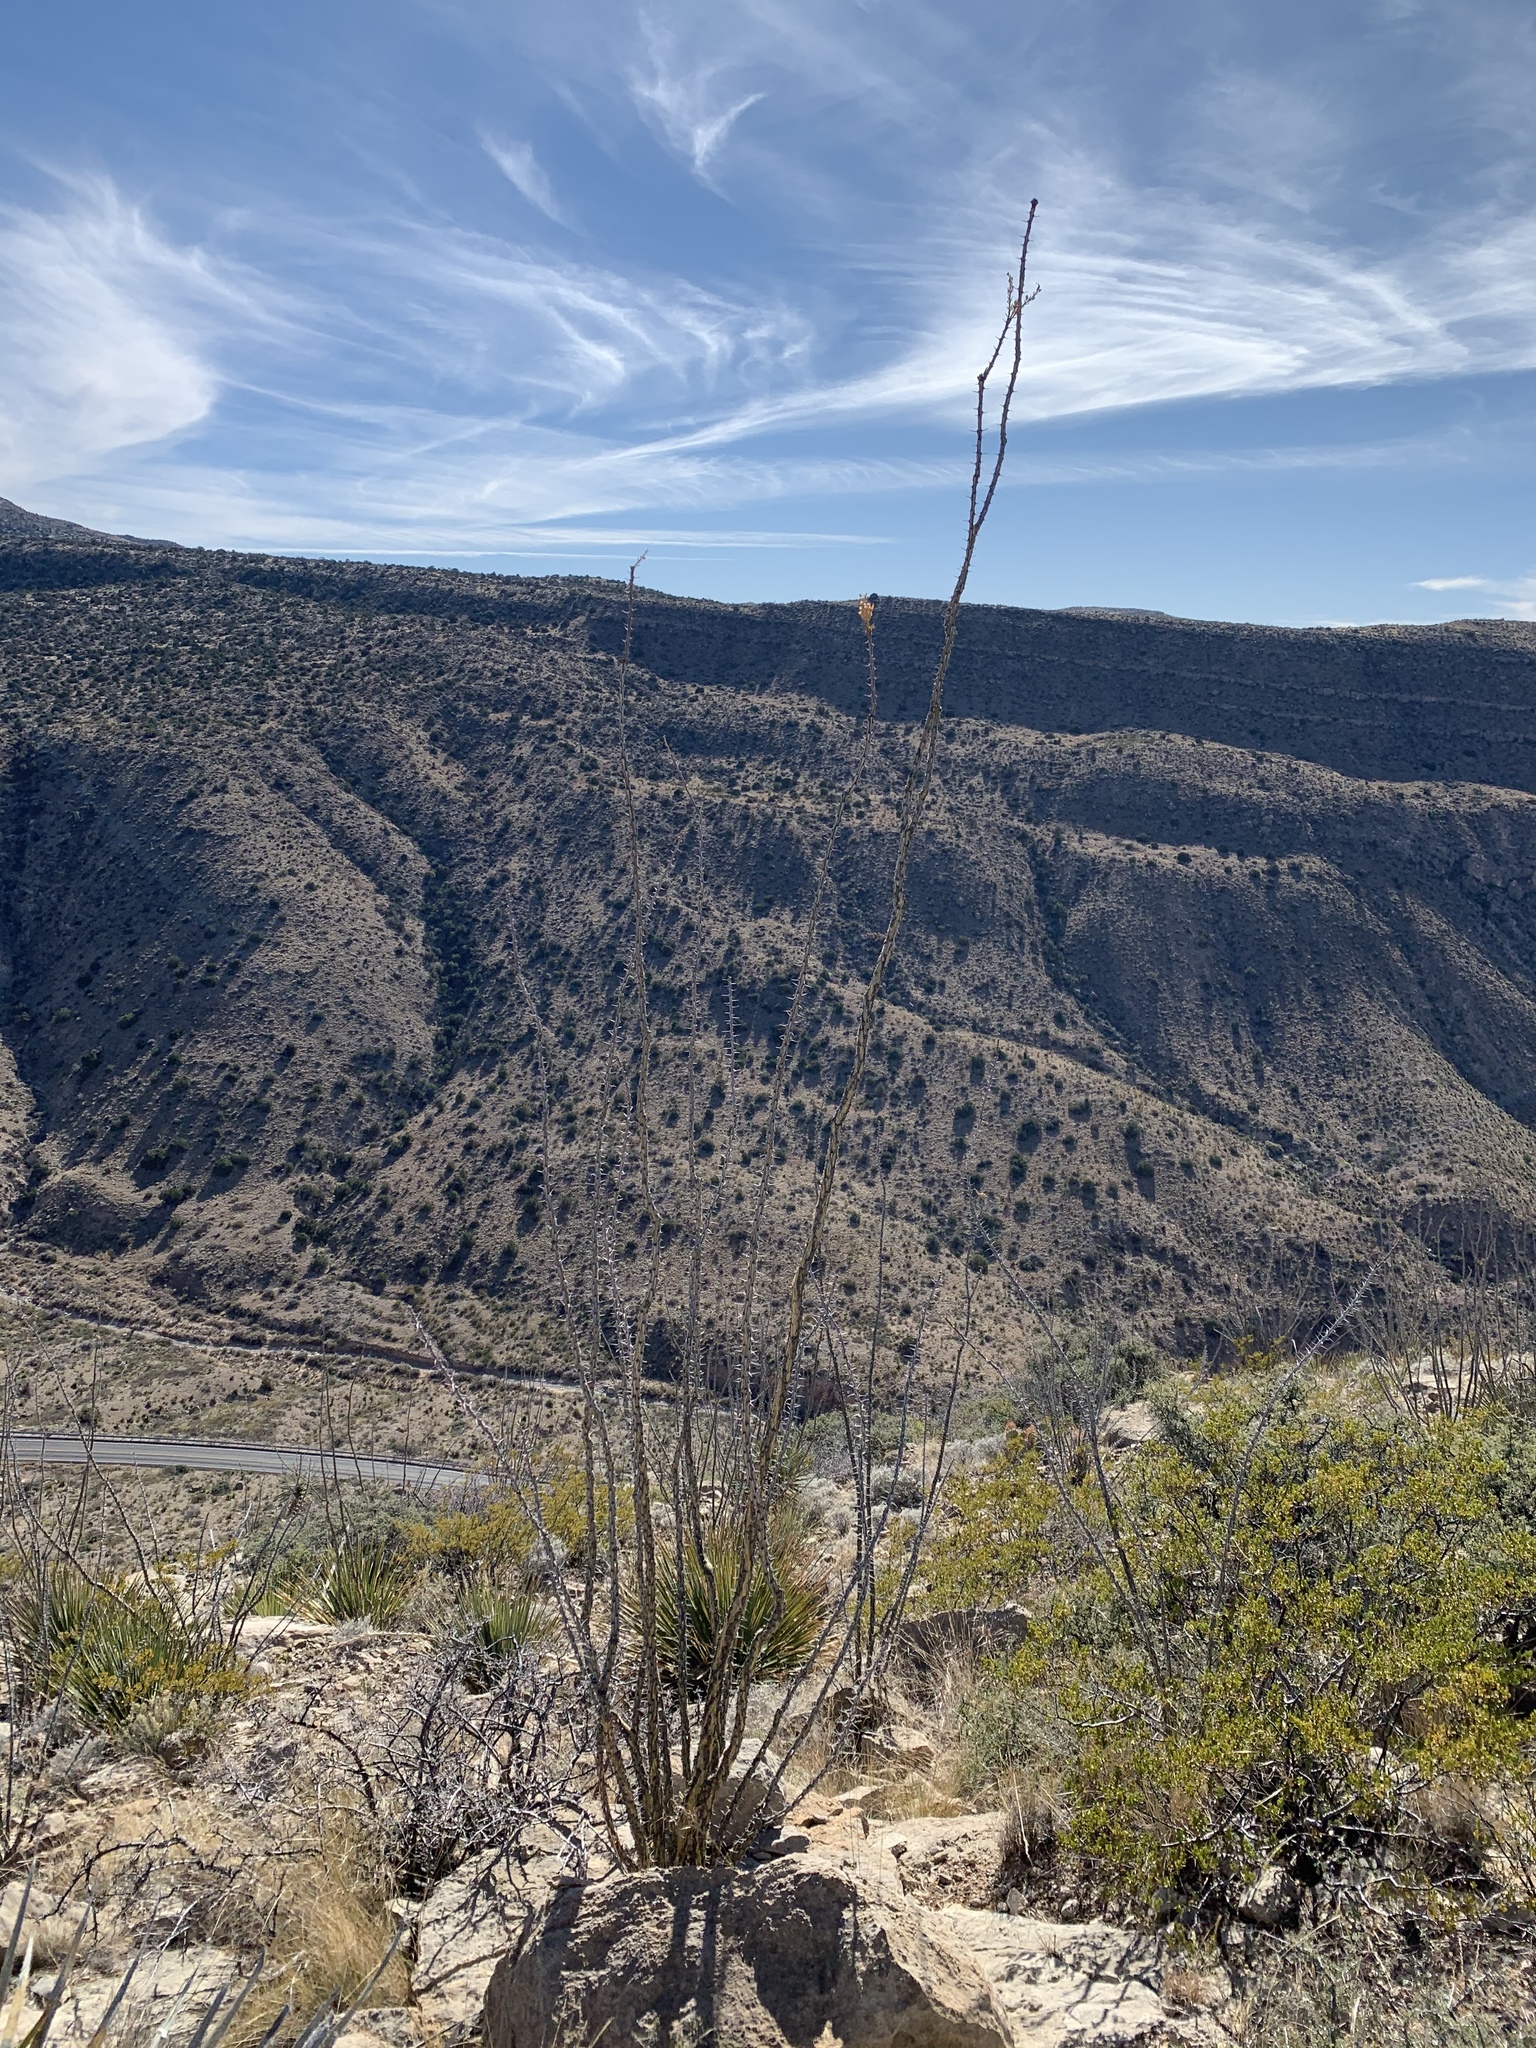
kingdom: Plantae
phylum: Tracheophyta
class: Magnoliopsida
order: Ericales
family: Fouquieriaceae
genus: Fouquieria
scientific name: Fouquieria splendens
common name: Vine-cactus
